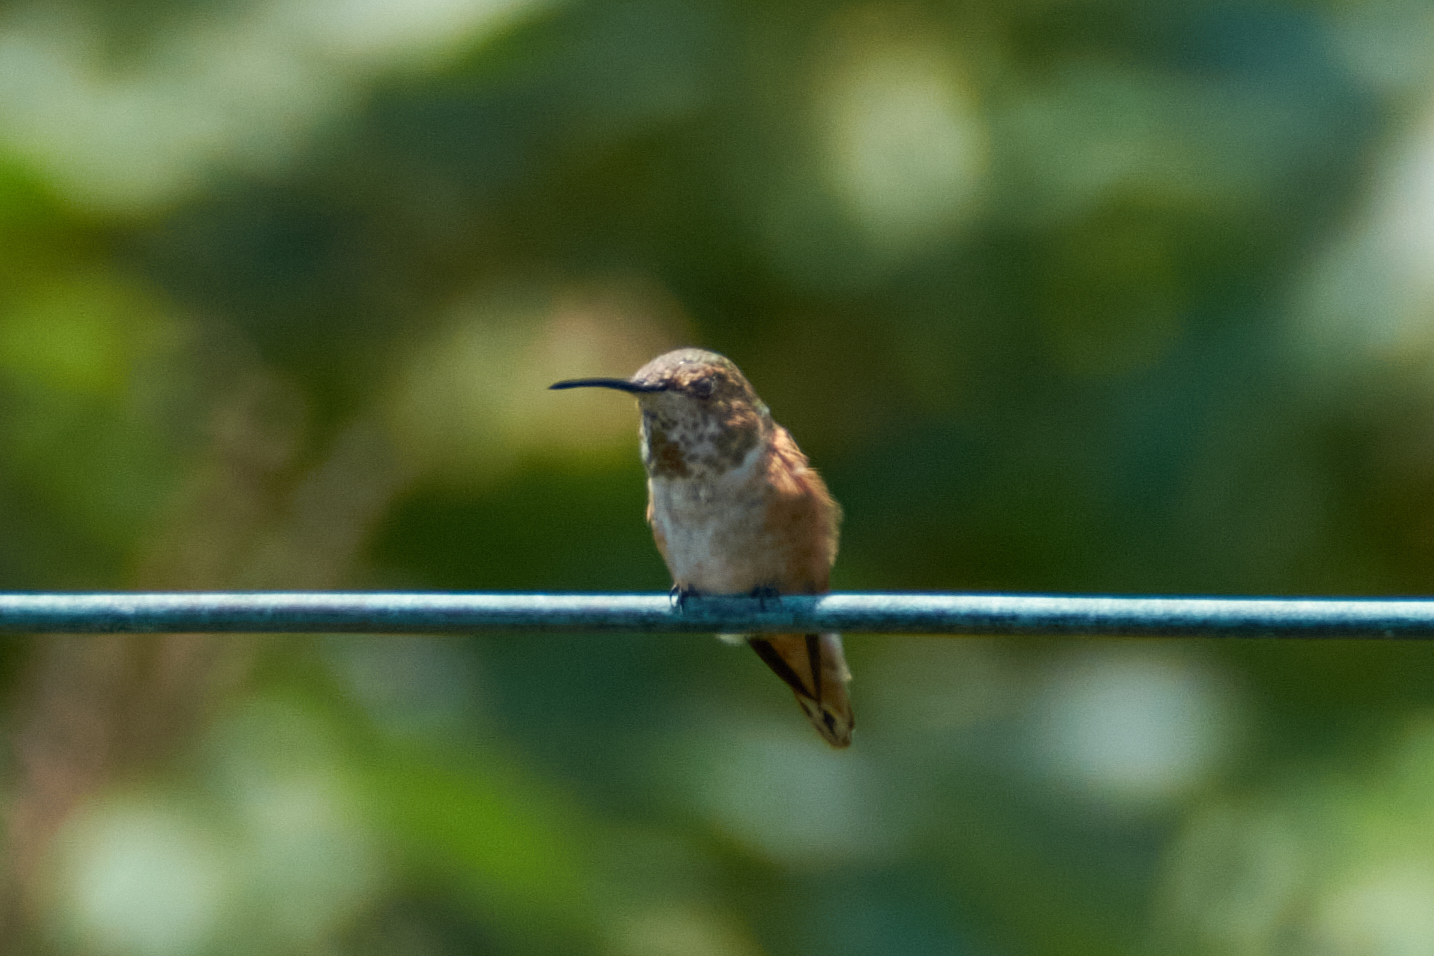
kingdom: Animalia
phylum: Chordata
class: Aves
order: Apodiformes
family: Trochilidae
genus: Selasphorus
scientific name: Selasphorus sasin
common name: Allen's hummingbird
